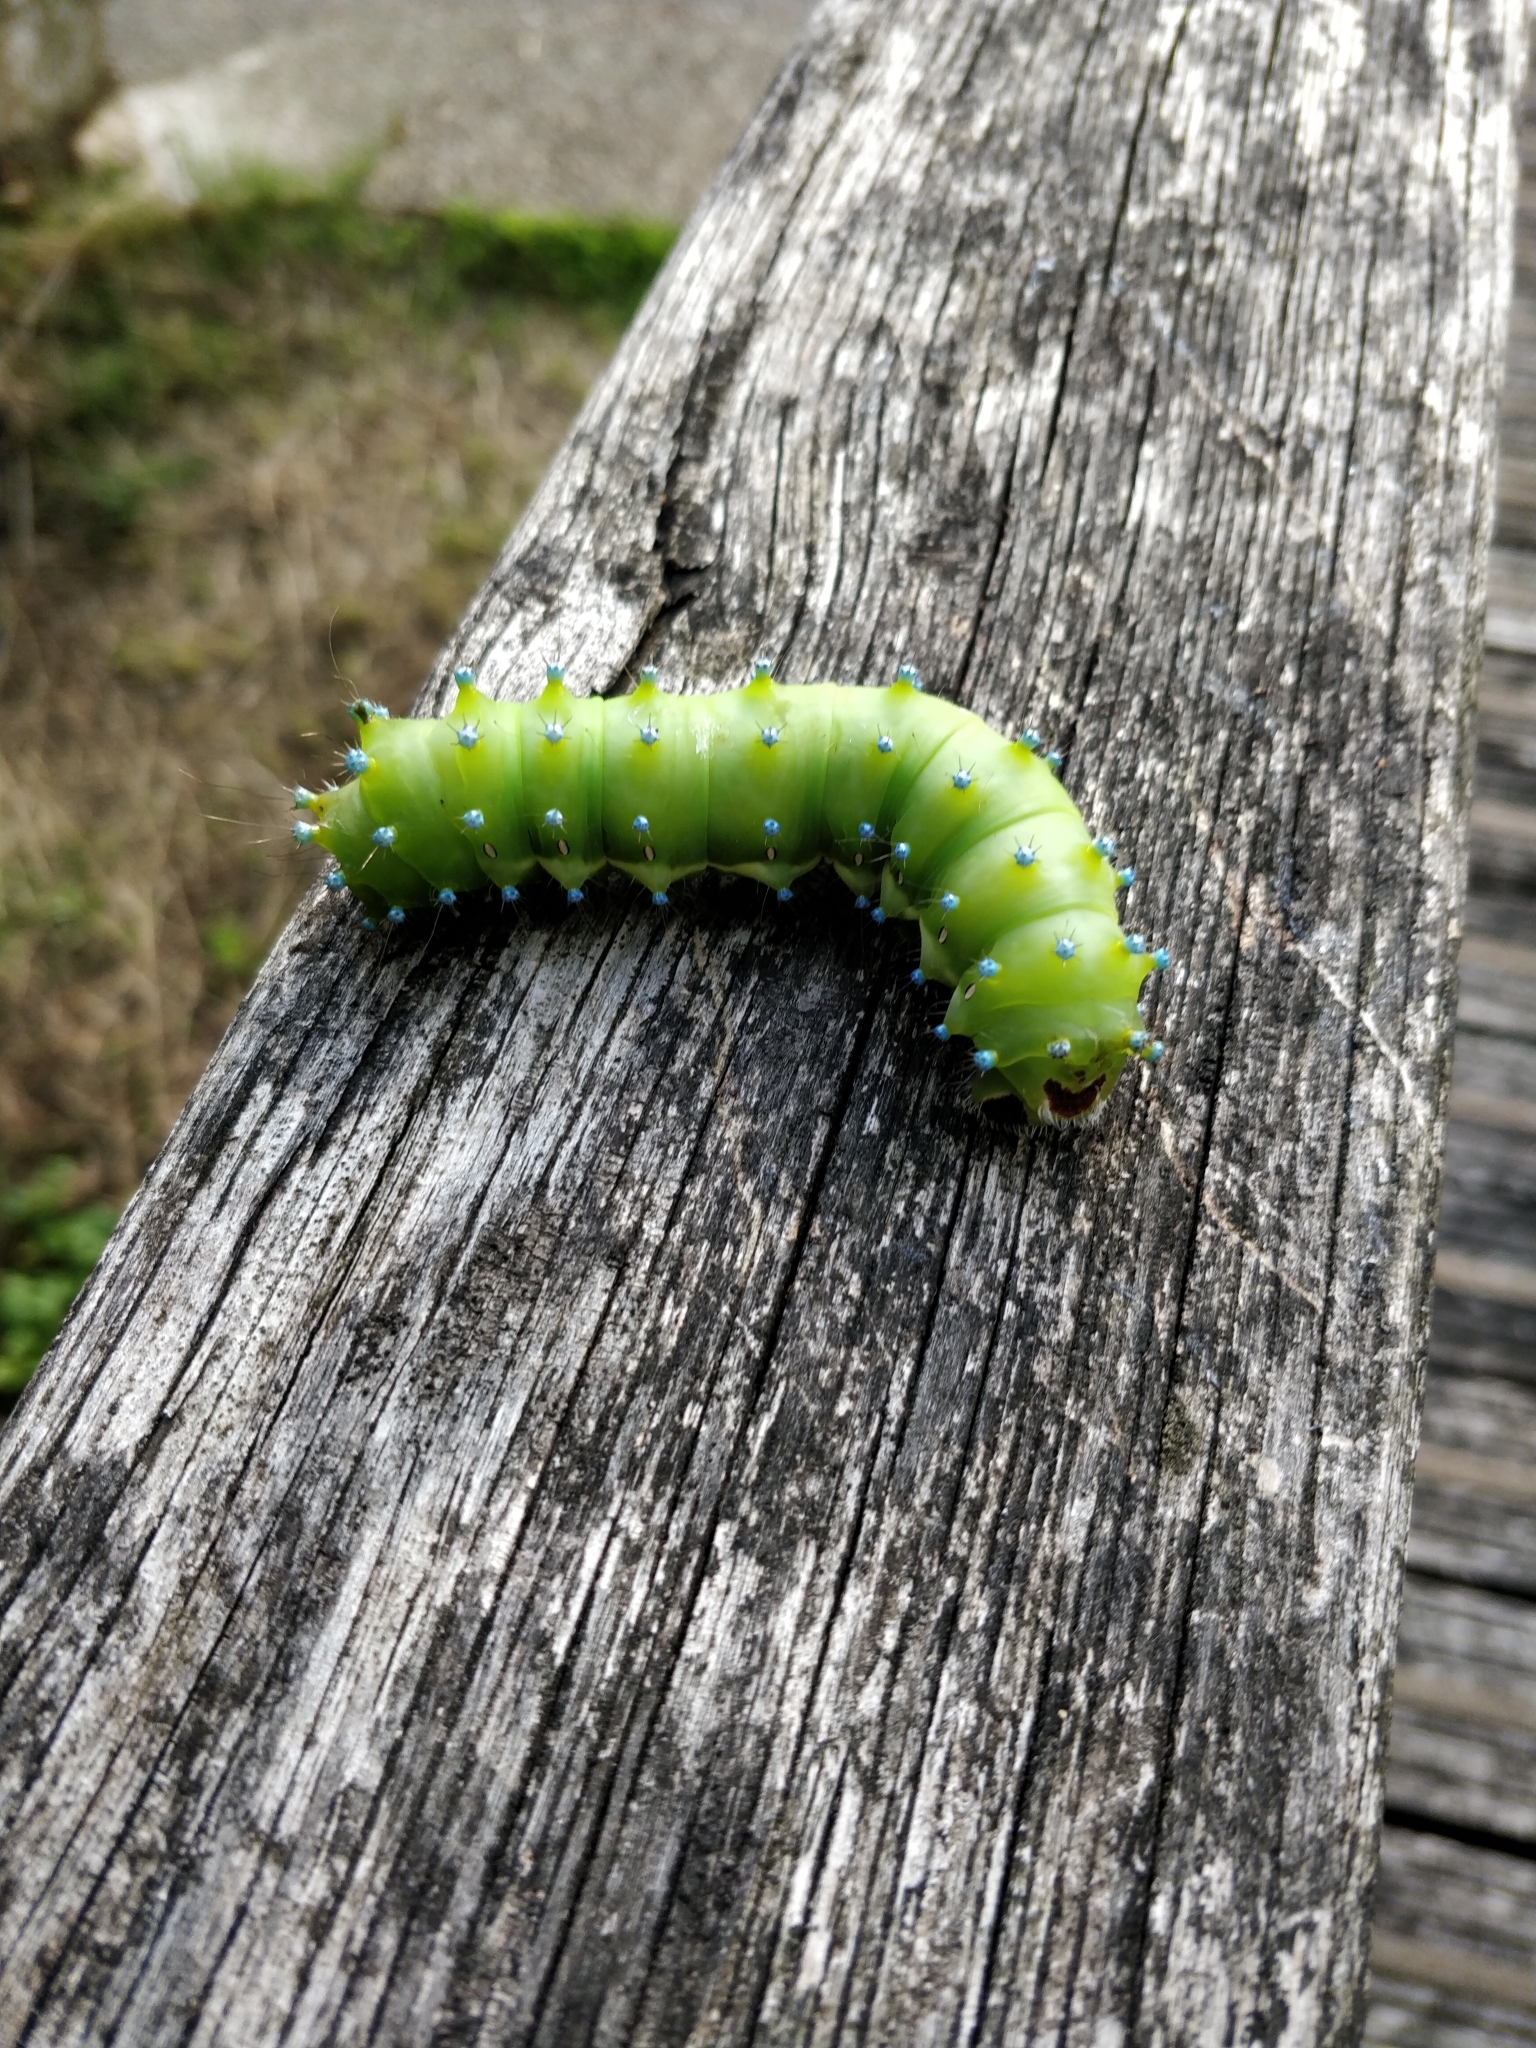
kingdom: Animalia
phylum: Arthropoda
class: Insecta
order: Lepidoptera
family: Saturniidae
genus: Saturnia
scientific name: Saturnia pyri
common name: Great peacock moth
